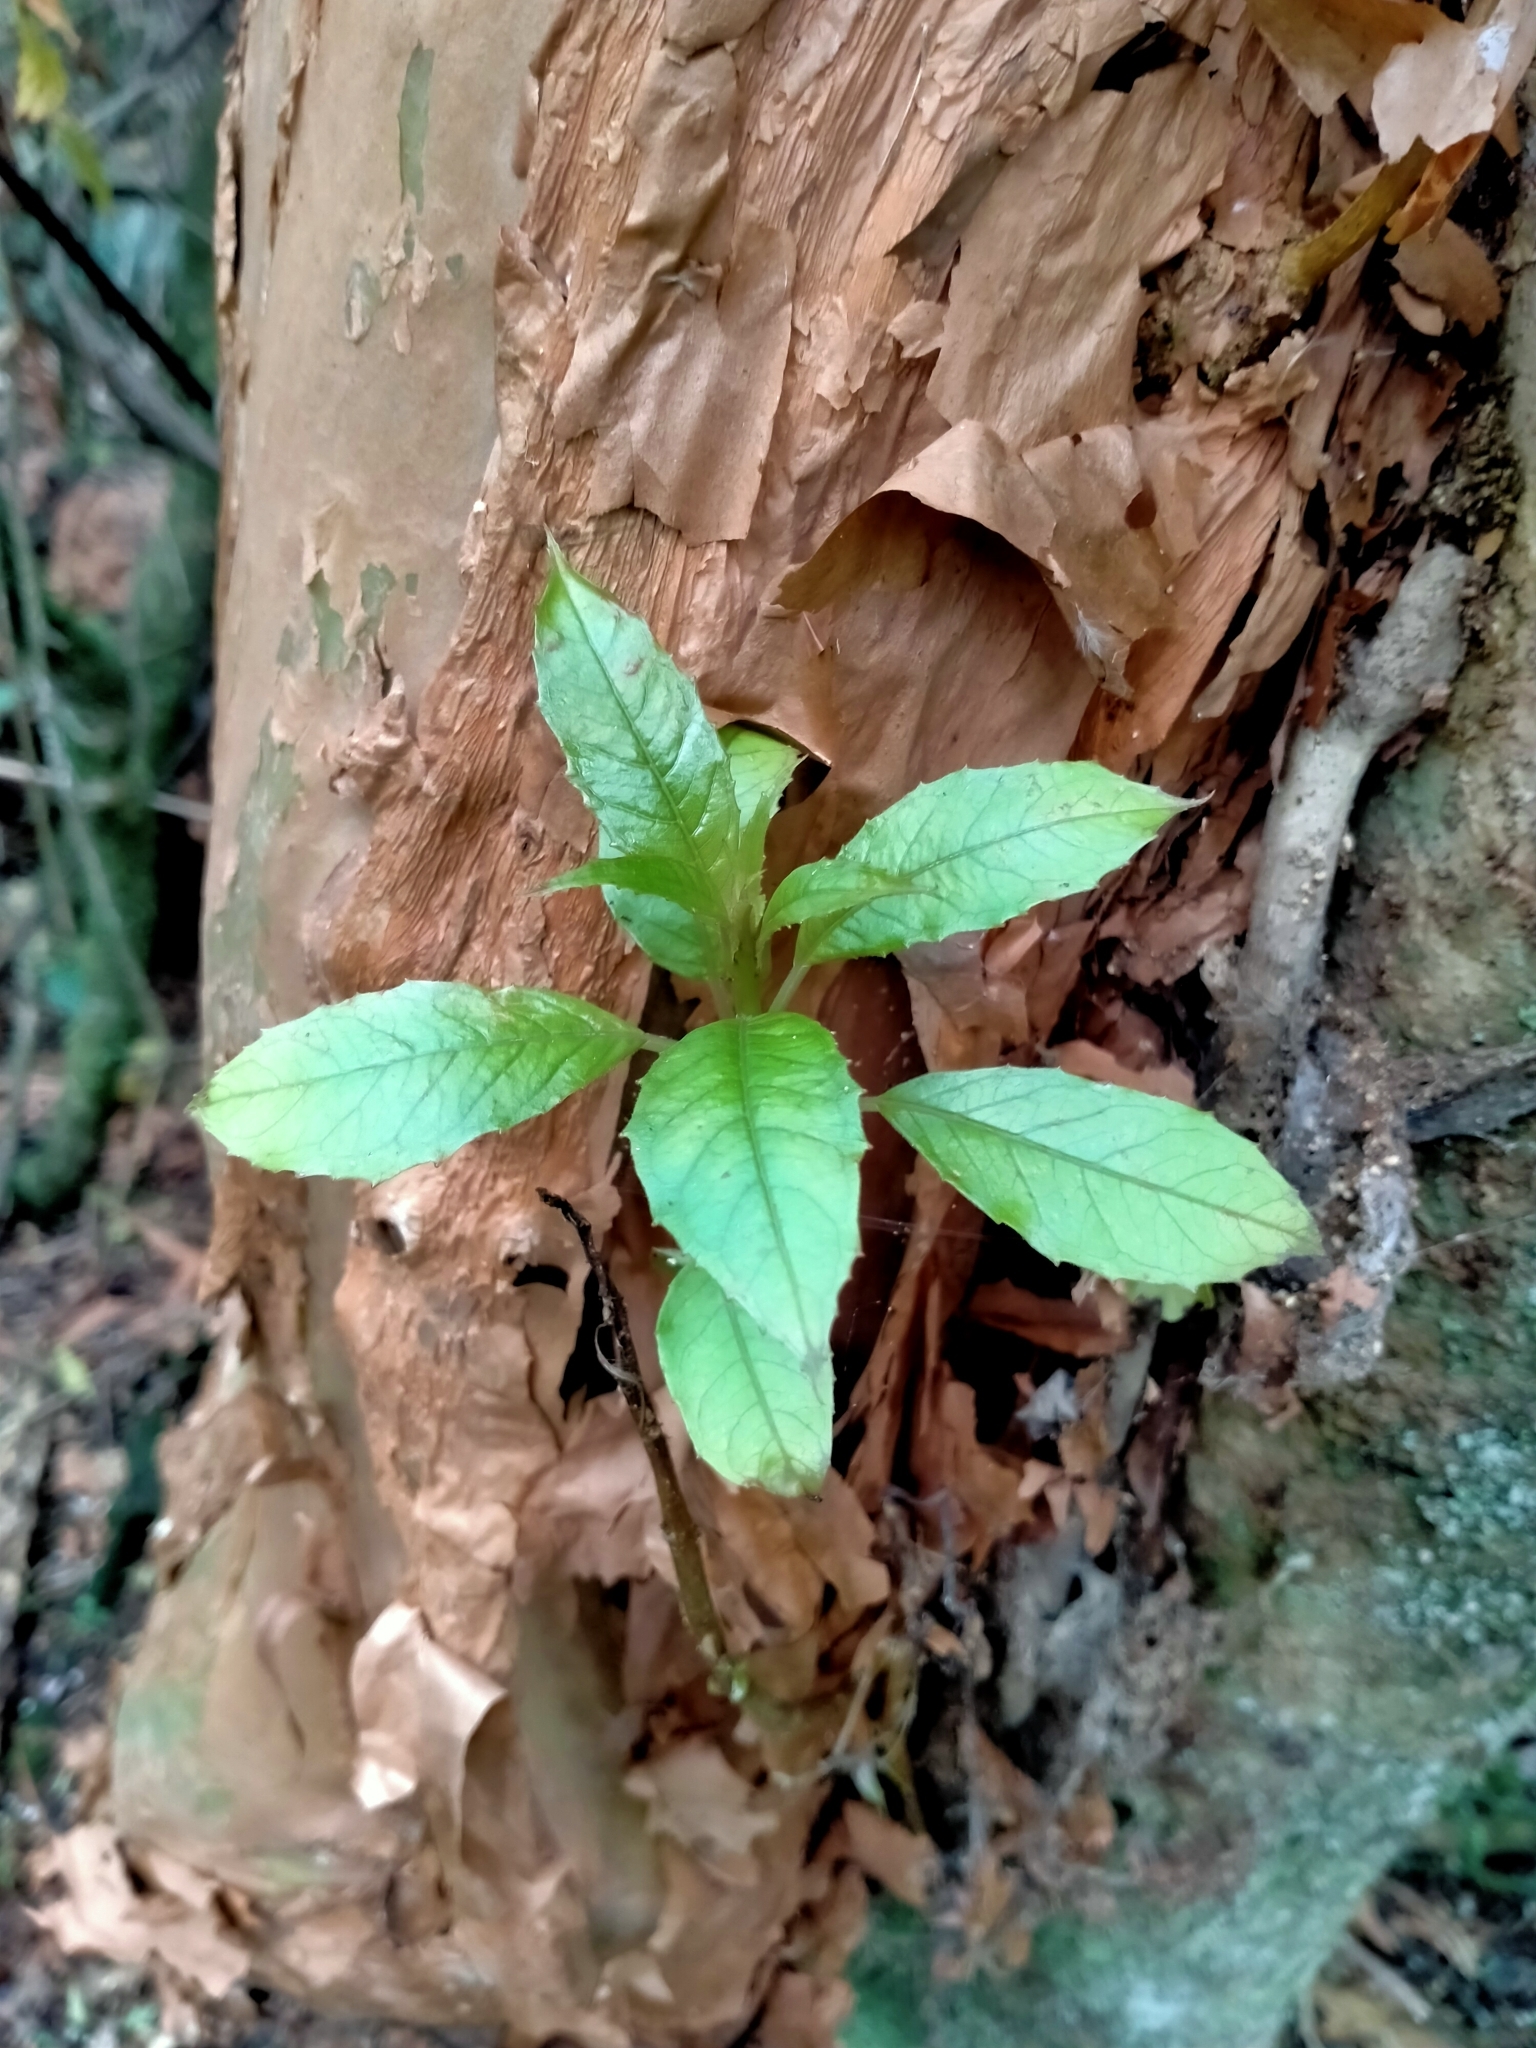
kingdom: Plantae
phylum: Tracheophyta
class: Magnoliopsida
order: Myrtales
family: Onagraceae
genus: Fuchsia
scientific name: Fuchsia excorticata
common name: Tree fuchsia
